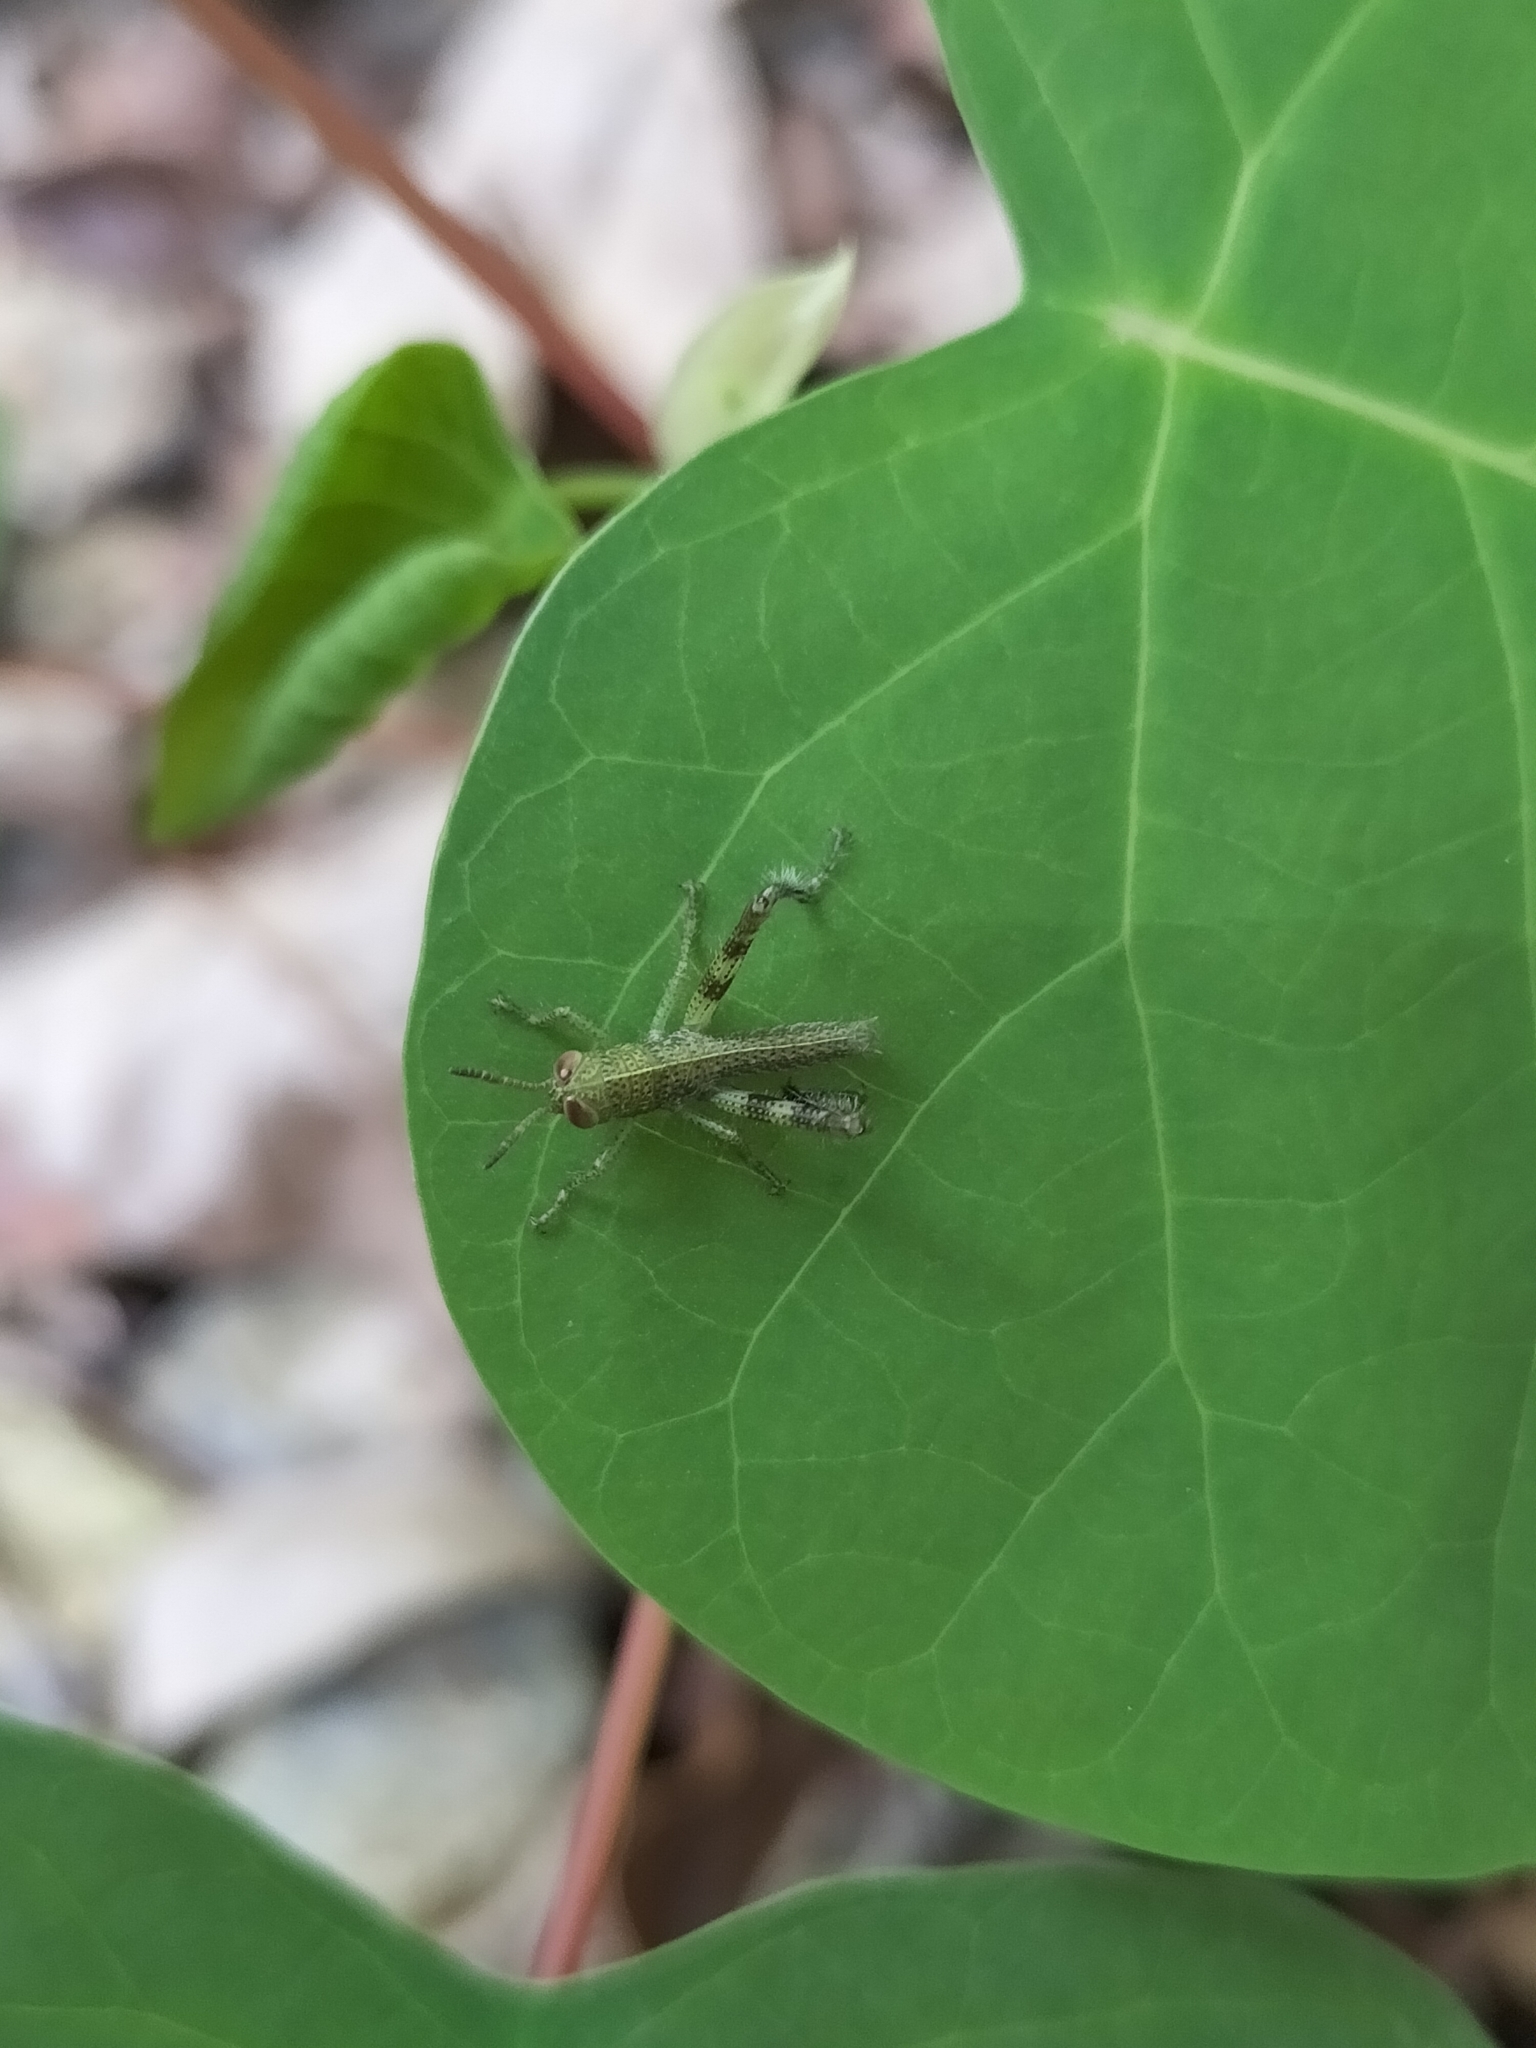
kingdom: Animalia
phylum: Arthropoda
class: Insecta
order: Orthoptera
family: Acrididae
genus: Valanga
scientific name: Valanga irregularis
